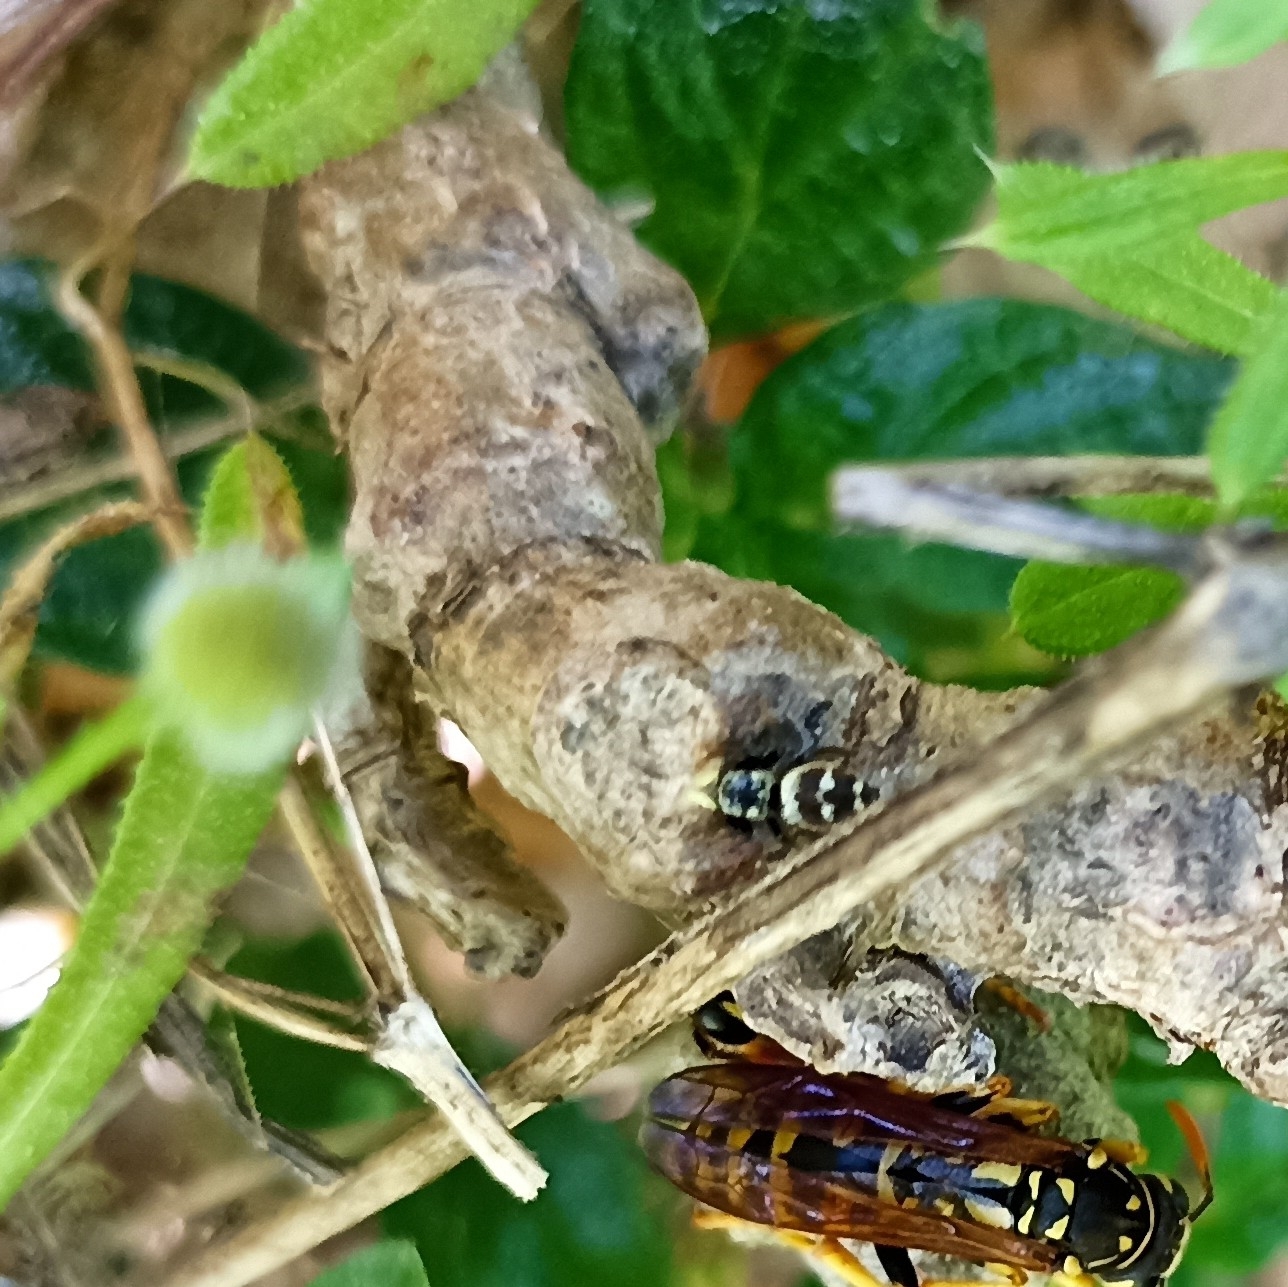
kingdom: Animalia
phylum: Arthropoda
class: Arachnida
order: Araneae
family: Salticidae
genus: Heliophanus
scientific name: Heliophanus apiatus
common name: Sun jumping spider
